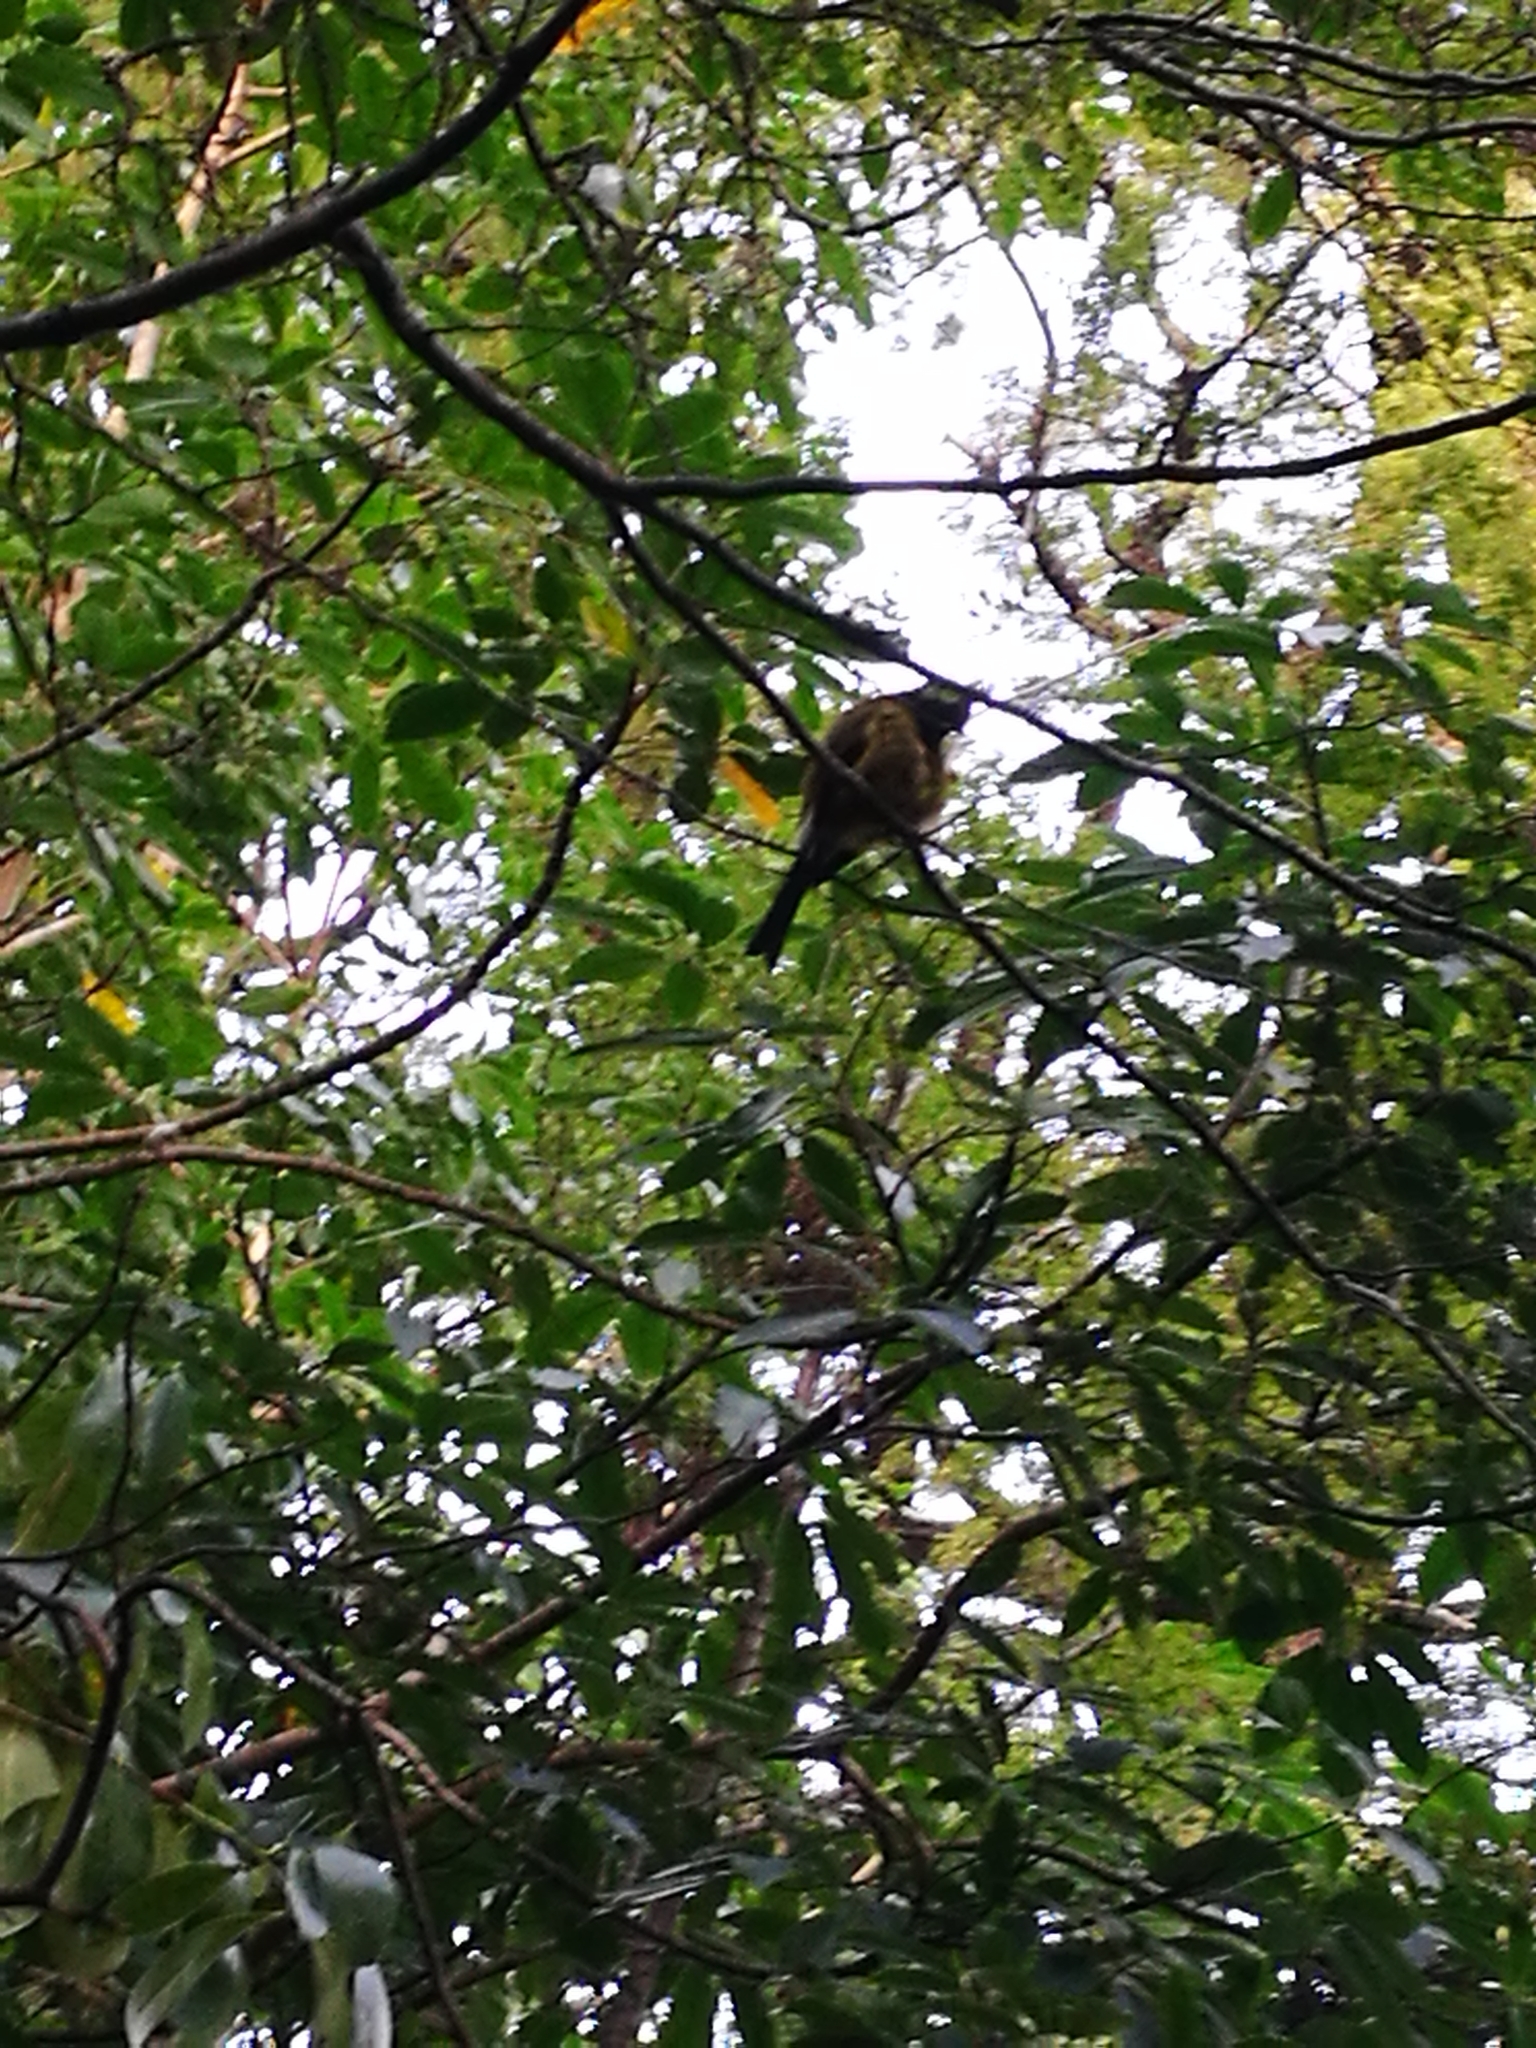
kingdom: Animalia
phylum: Chordata
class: Aves
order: Passeriformes
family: Meliphagidae
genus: Anthornis
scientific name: Anthornis melanura
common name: New zealand bellbird
